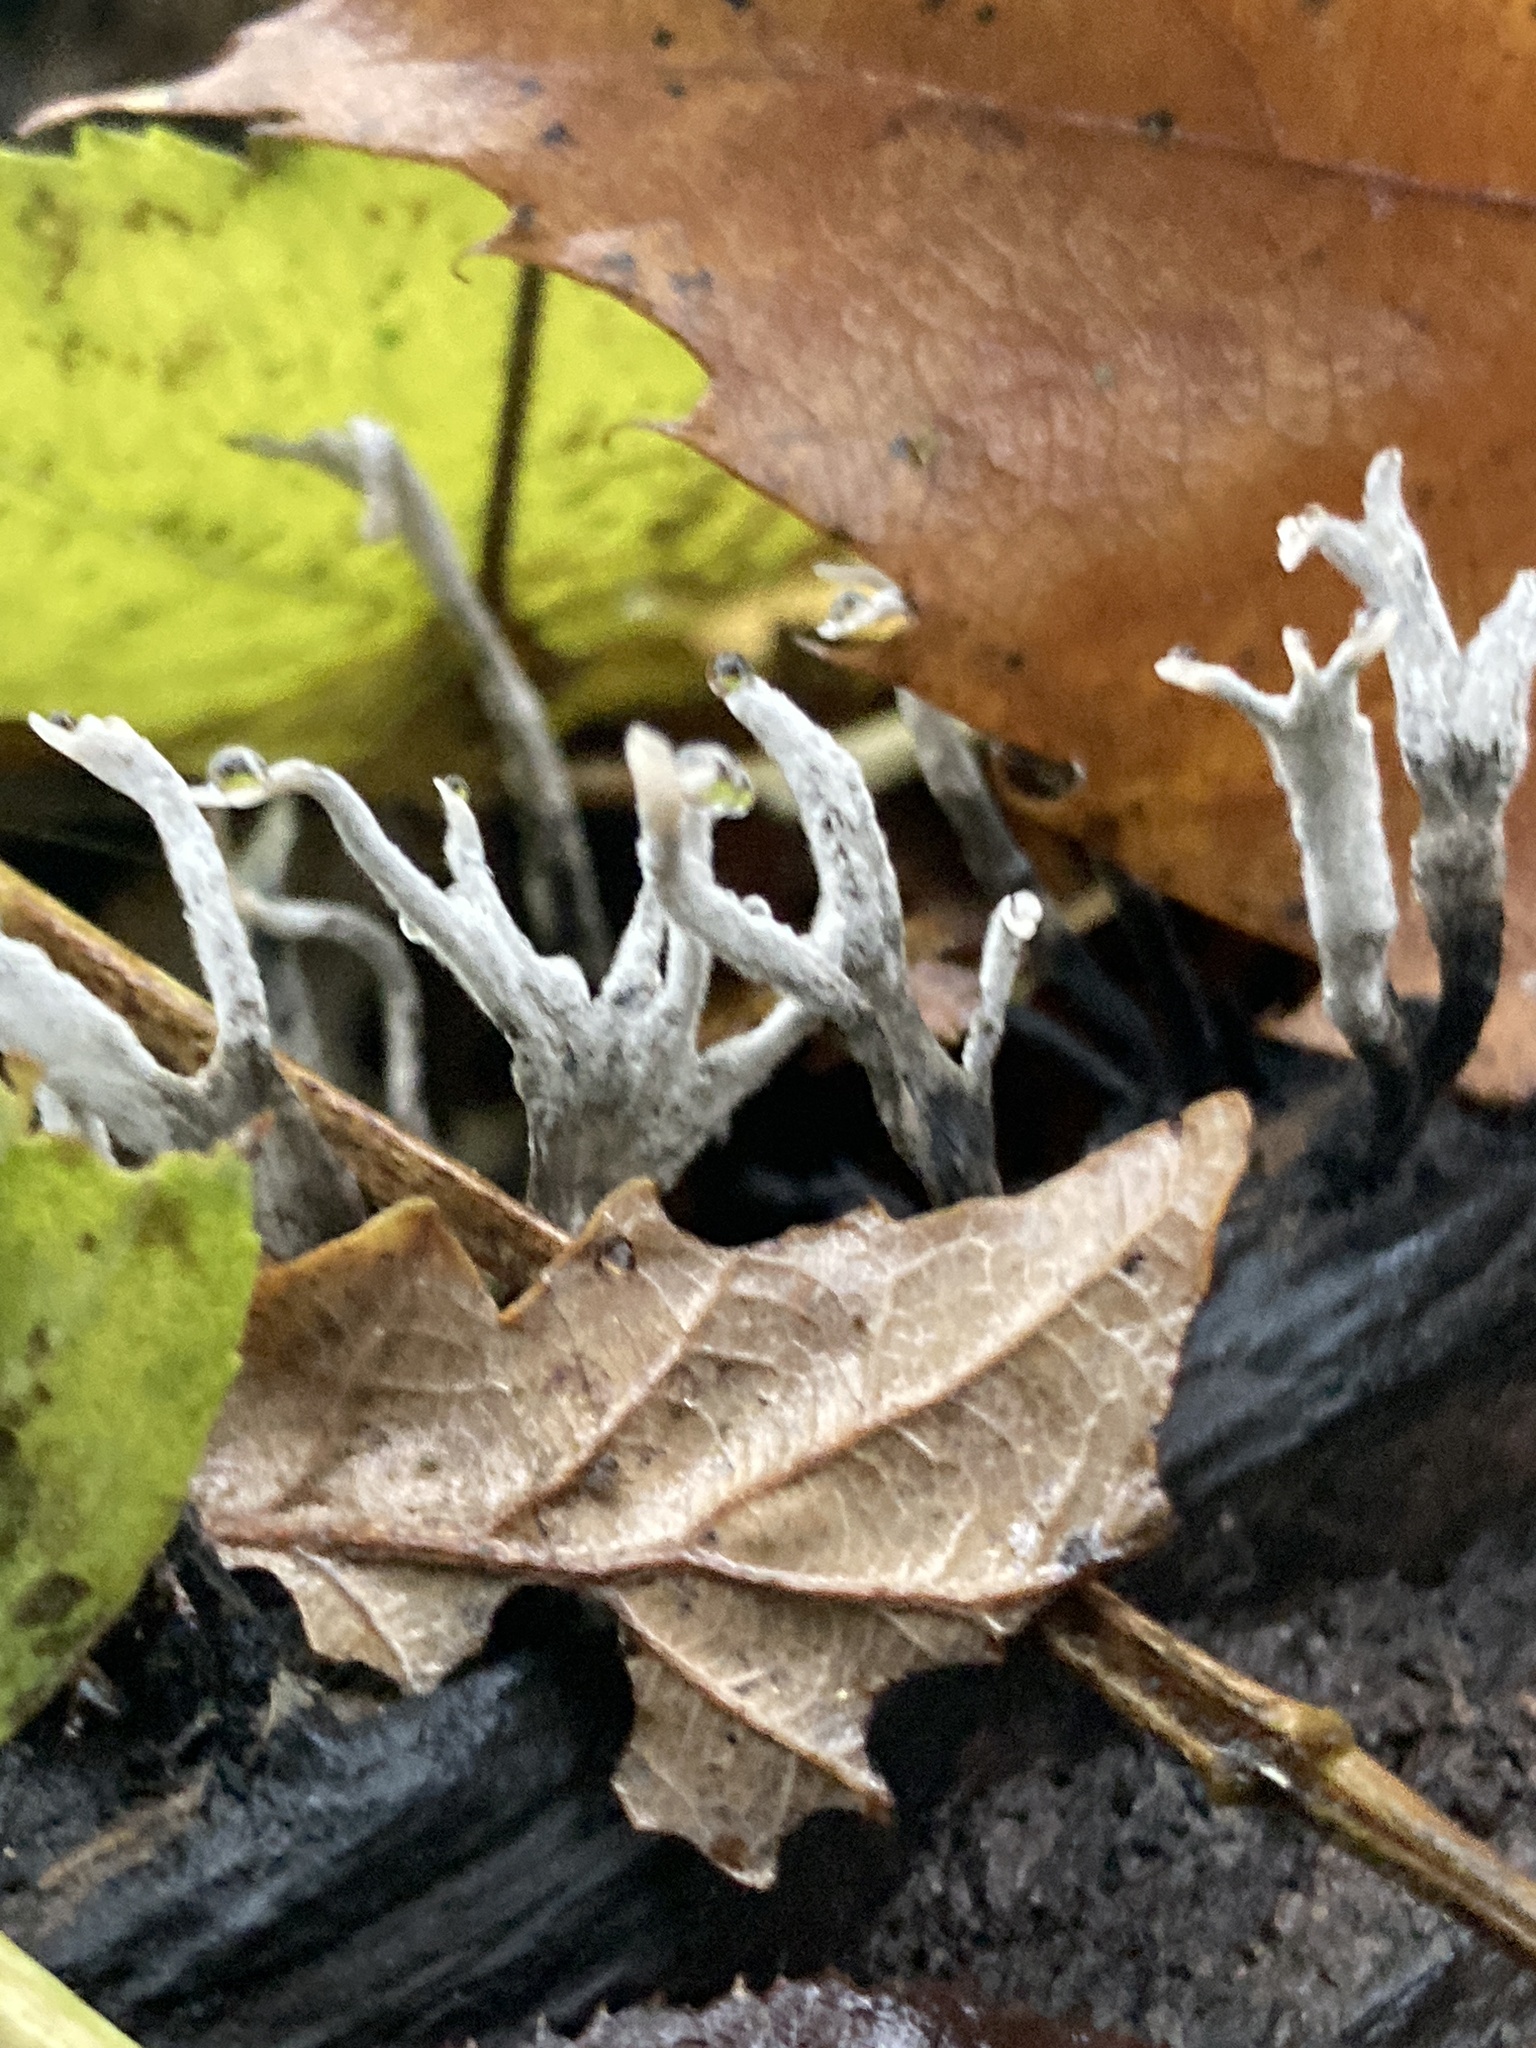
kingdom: Fungi
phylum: Ascomycota
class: Sordariomycetes
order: Xylariales
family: Xylariaceae
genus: Xylaria
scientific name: Xylaria hypoxylon
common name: Candle-snuff fungus
